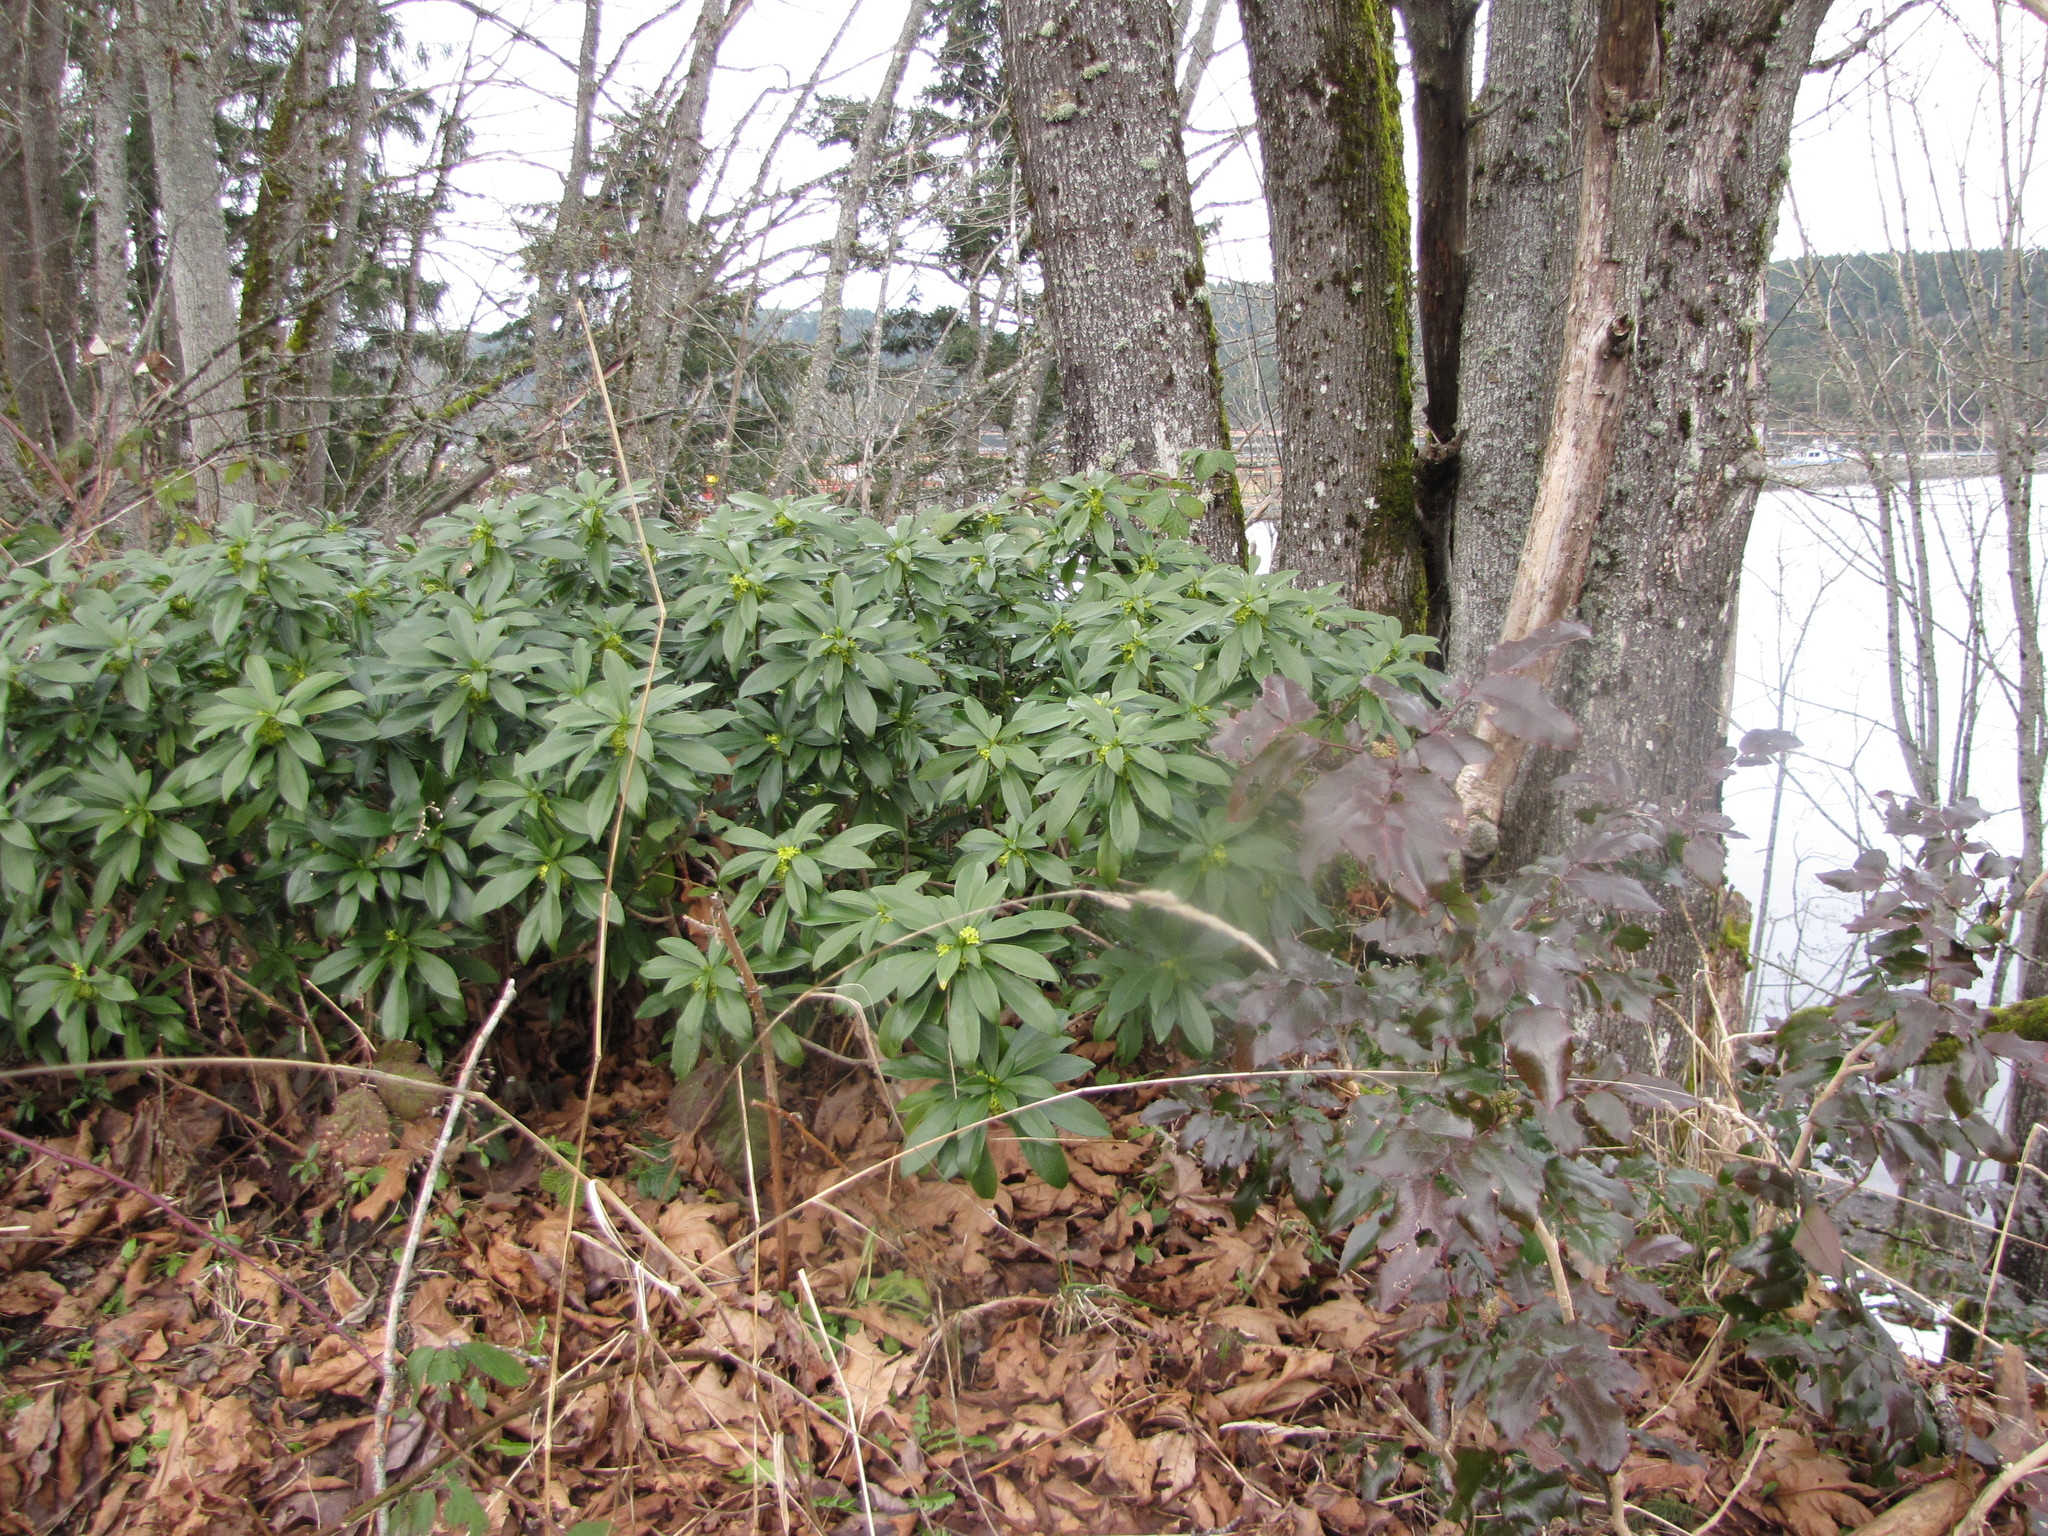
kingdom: Plantae
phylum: Tracheophyta
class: Magnoliopsida
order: Malvales
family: Thymelaeaceae
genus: Daphne
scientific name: Daphne laureola
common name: Spurge-laurel
